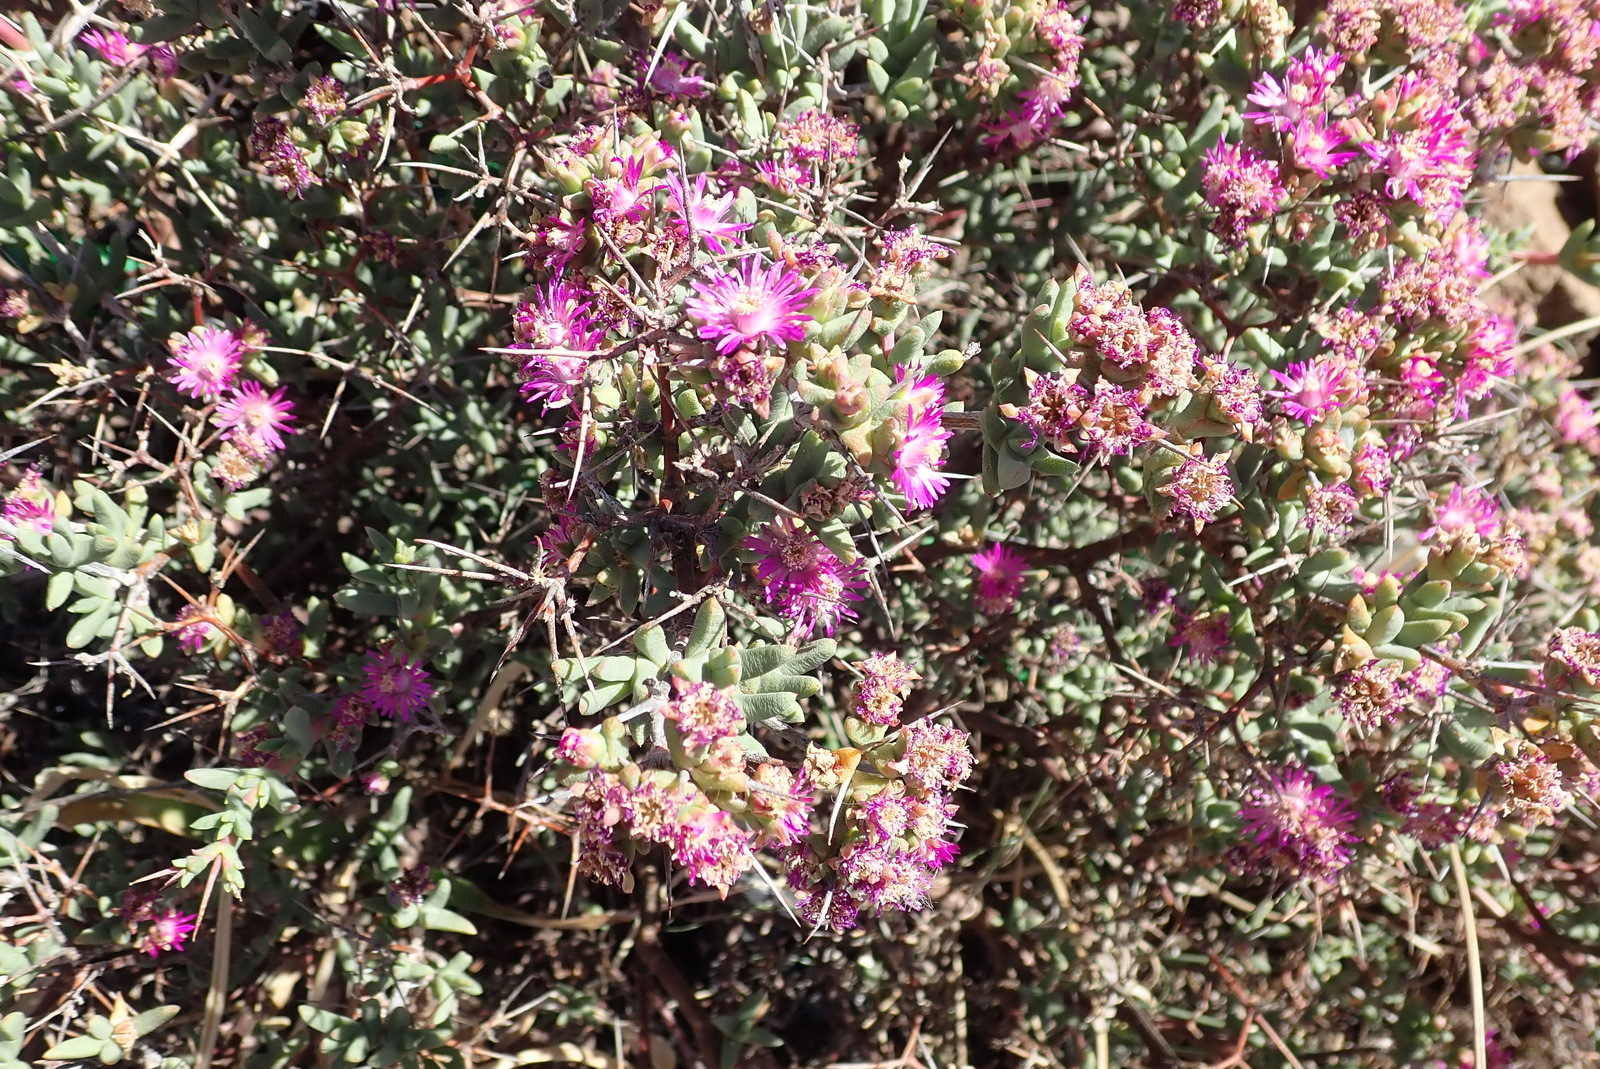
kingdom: Plantae
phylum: Tracheophyta
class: Magnoliopsida
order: Caryophyllales
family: Aizoaceae
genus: Ruschia
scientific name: Ruschia intricata
